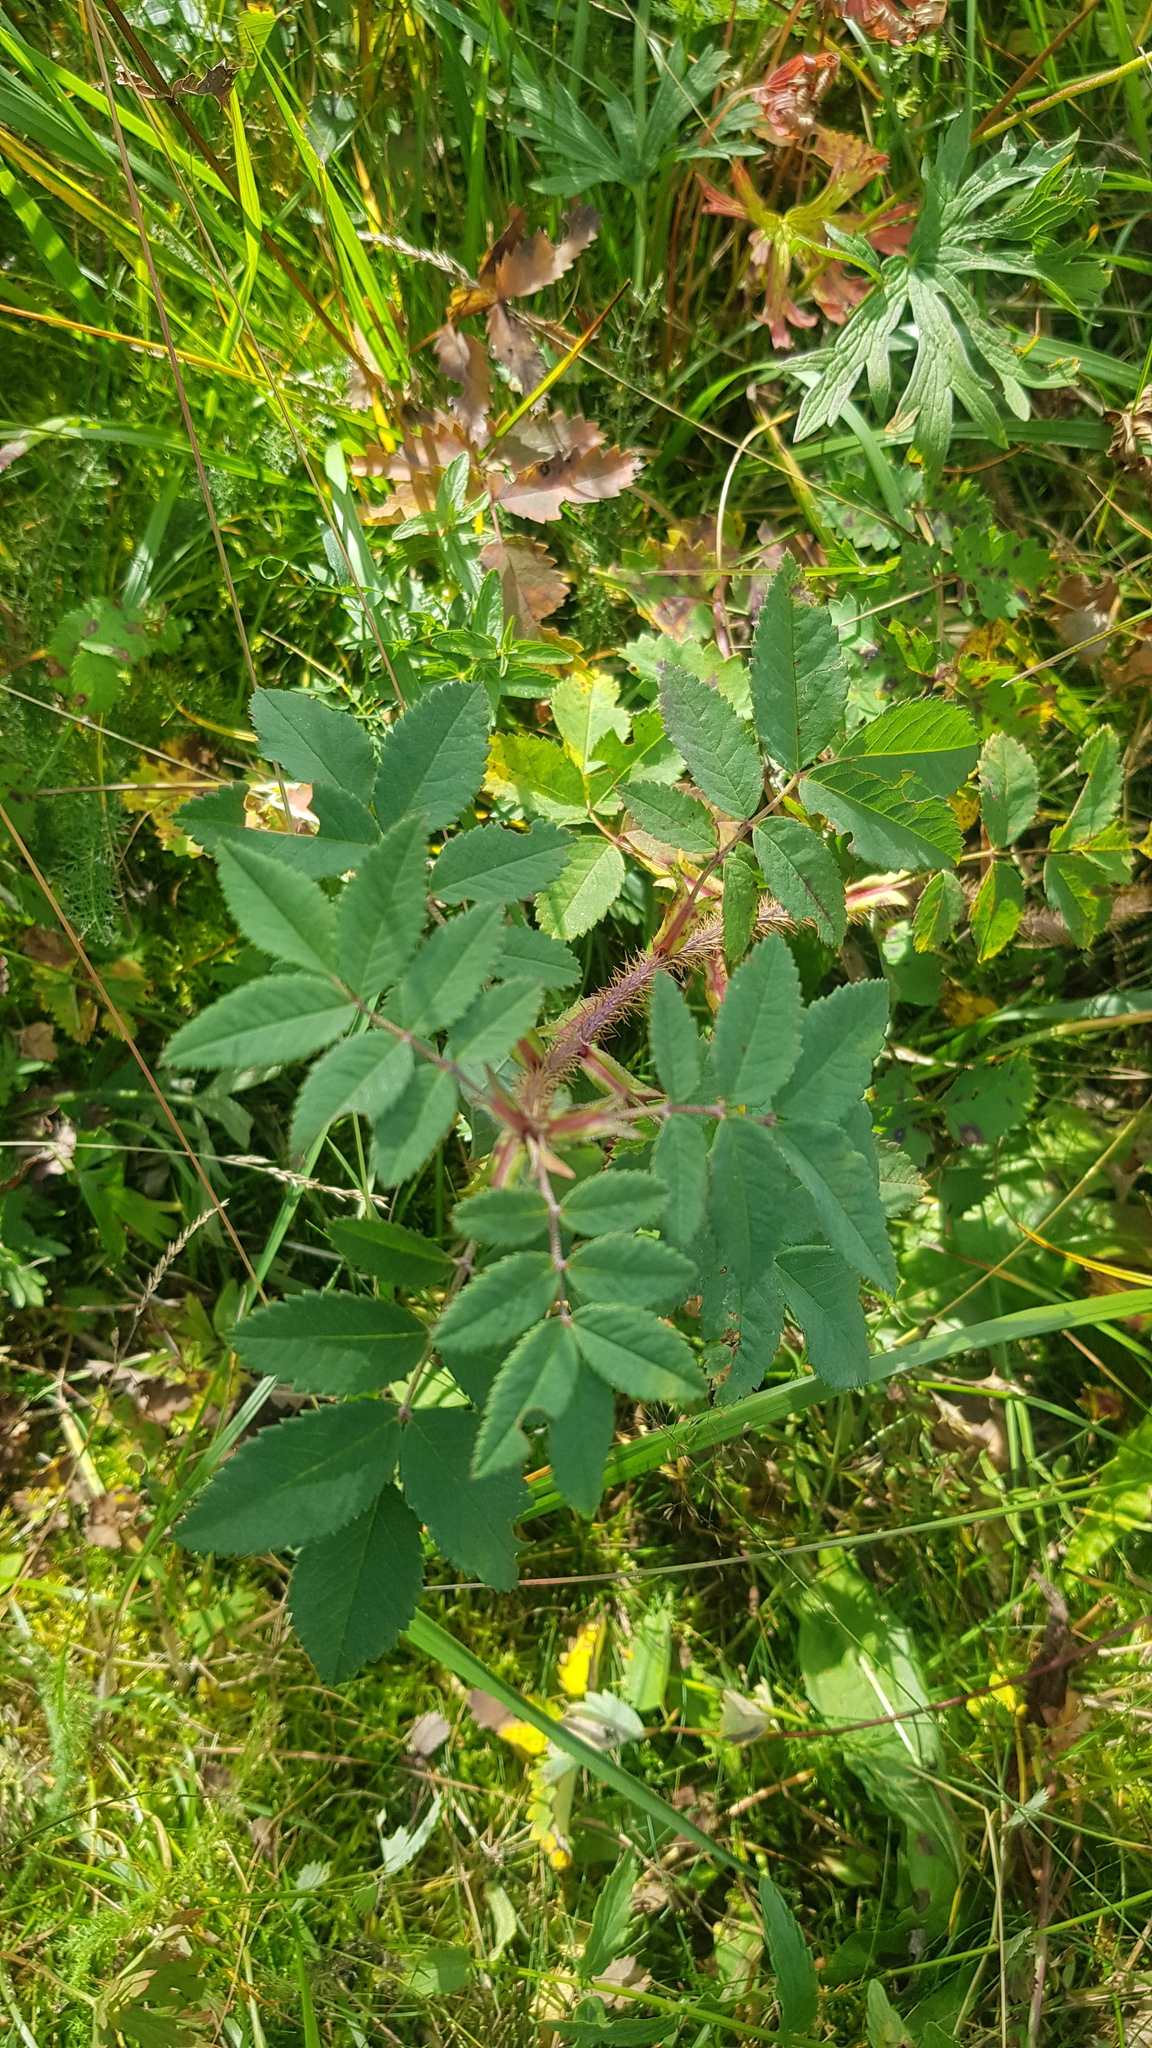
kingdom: Plantae
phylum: Tracheophyta
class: Magnoliopsida
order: Rosales
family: Rosaceae
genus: Rosa
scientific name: Rosa acicularis
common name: Prickly rose
